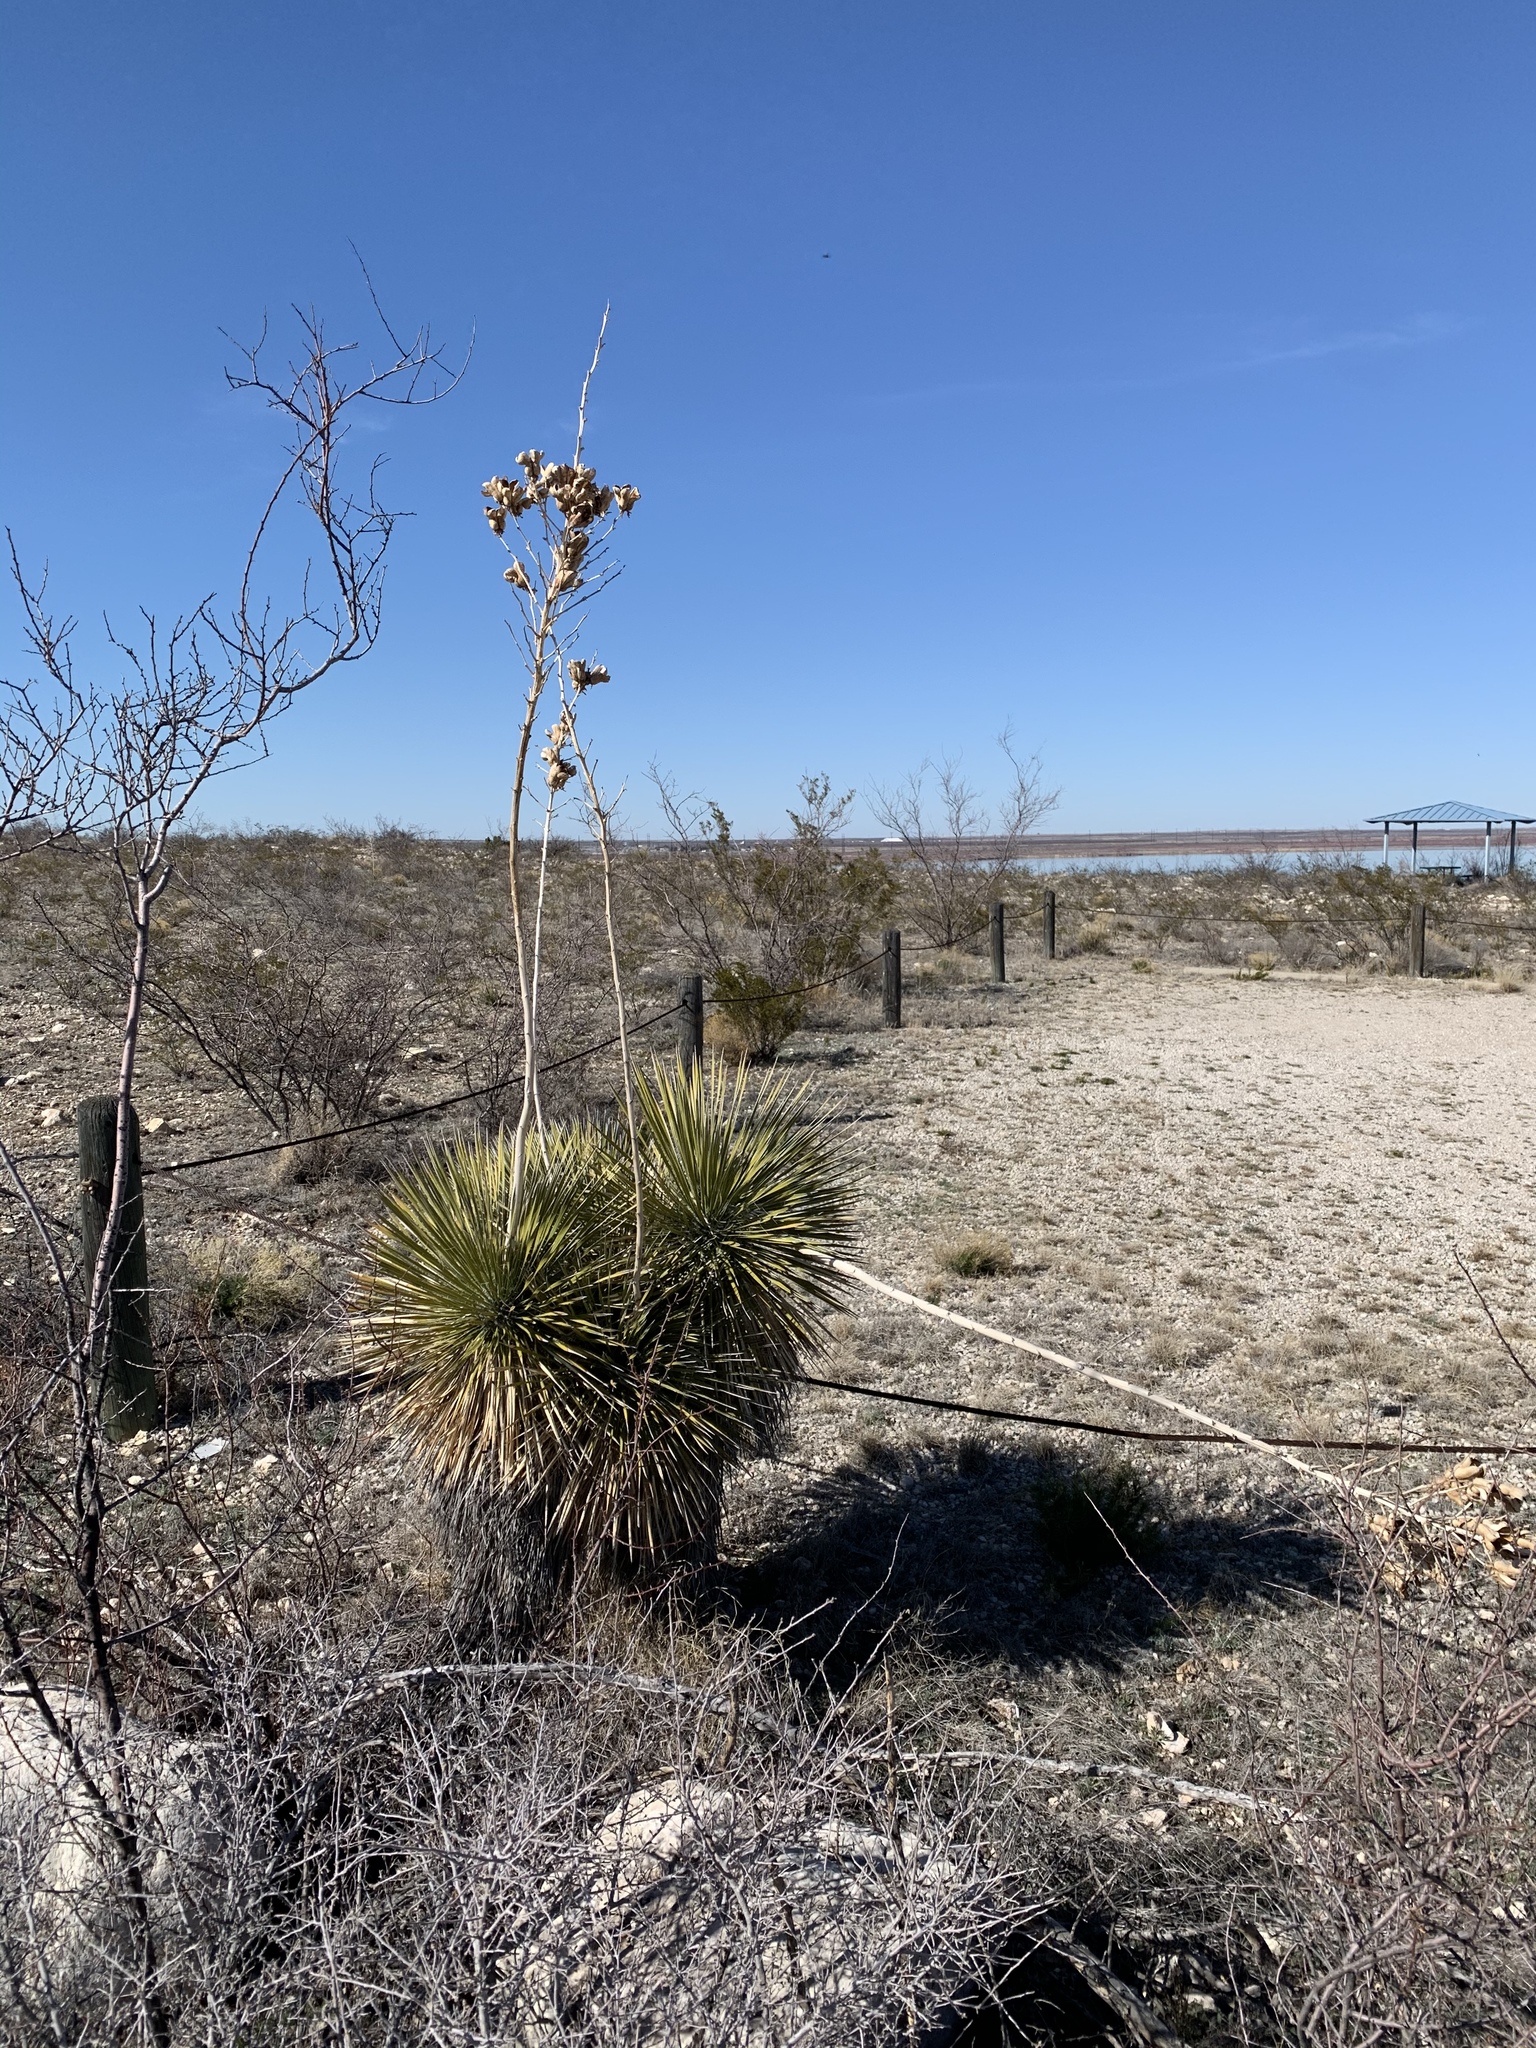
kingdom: Plantae
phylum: Tracheophyta
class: Liliopsida
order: Asparagales
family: Asparagaceae
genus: Yucca
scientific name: Yucca elata
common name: Palmella
